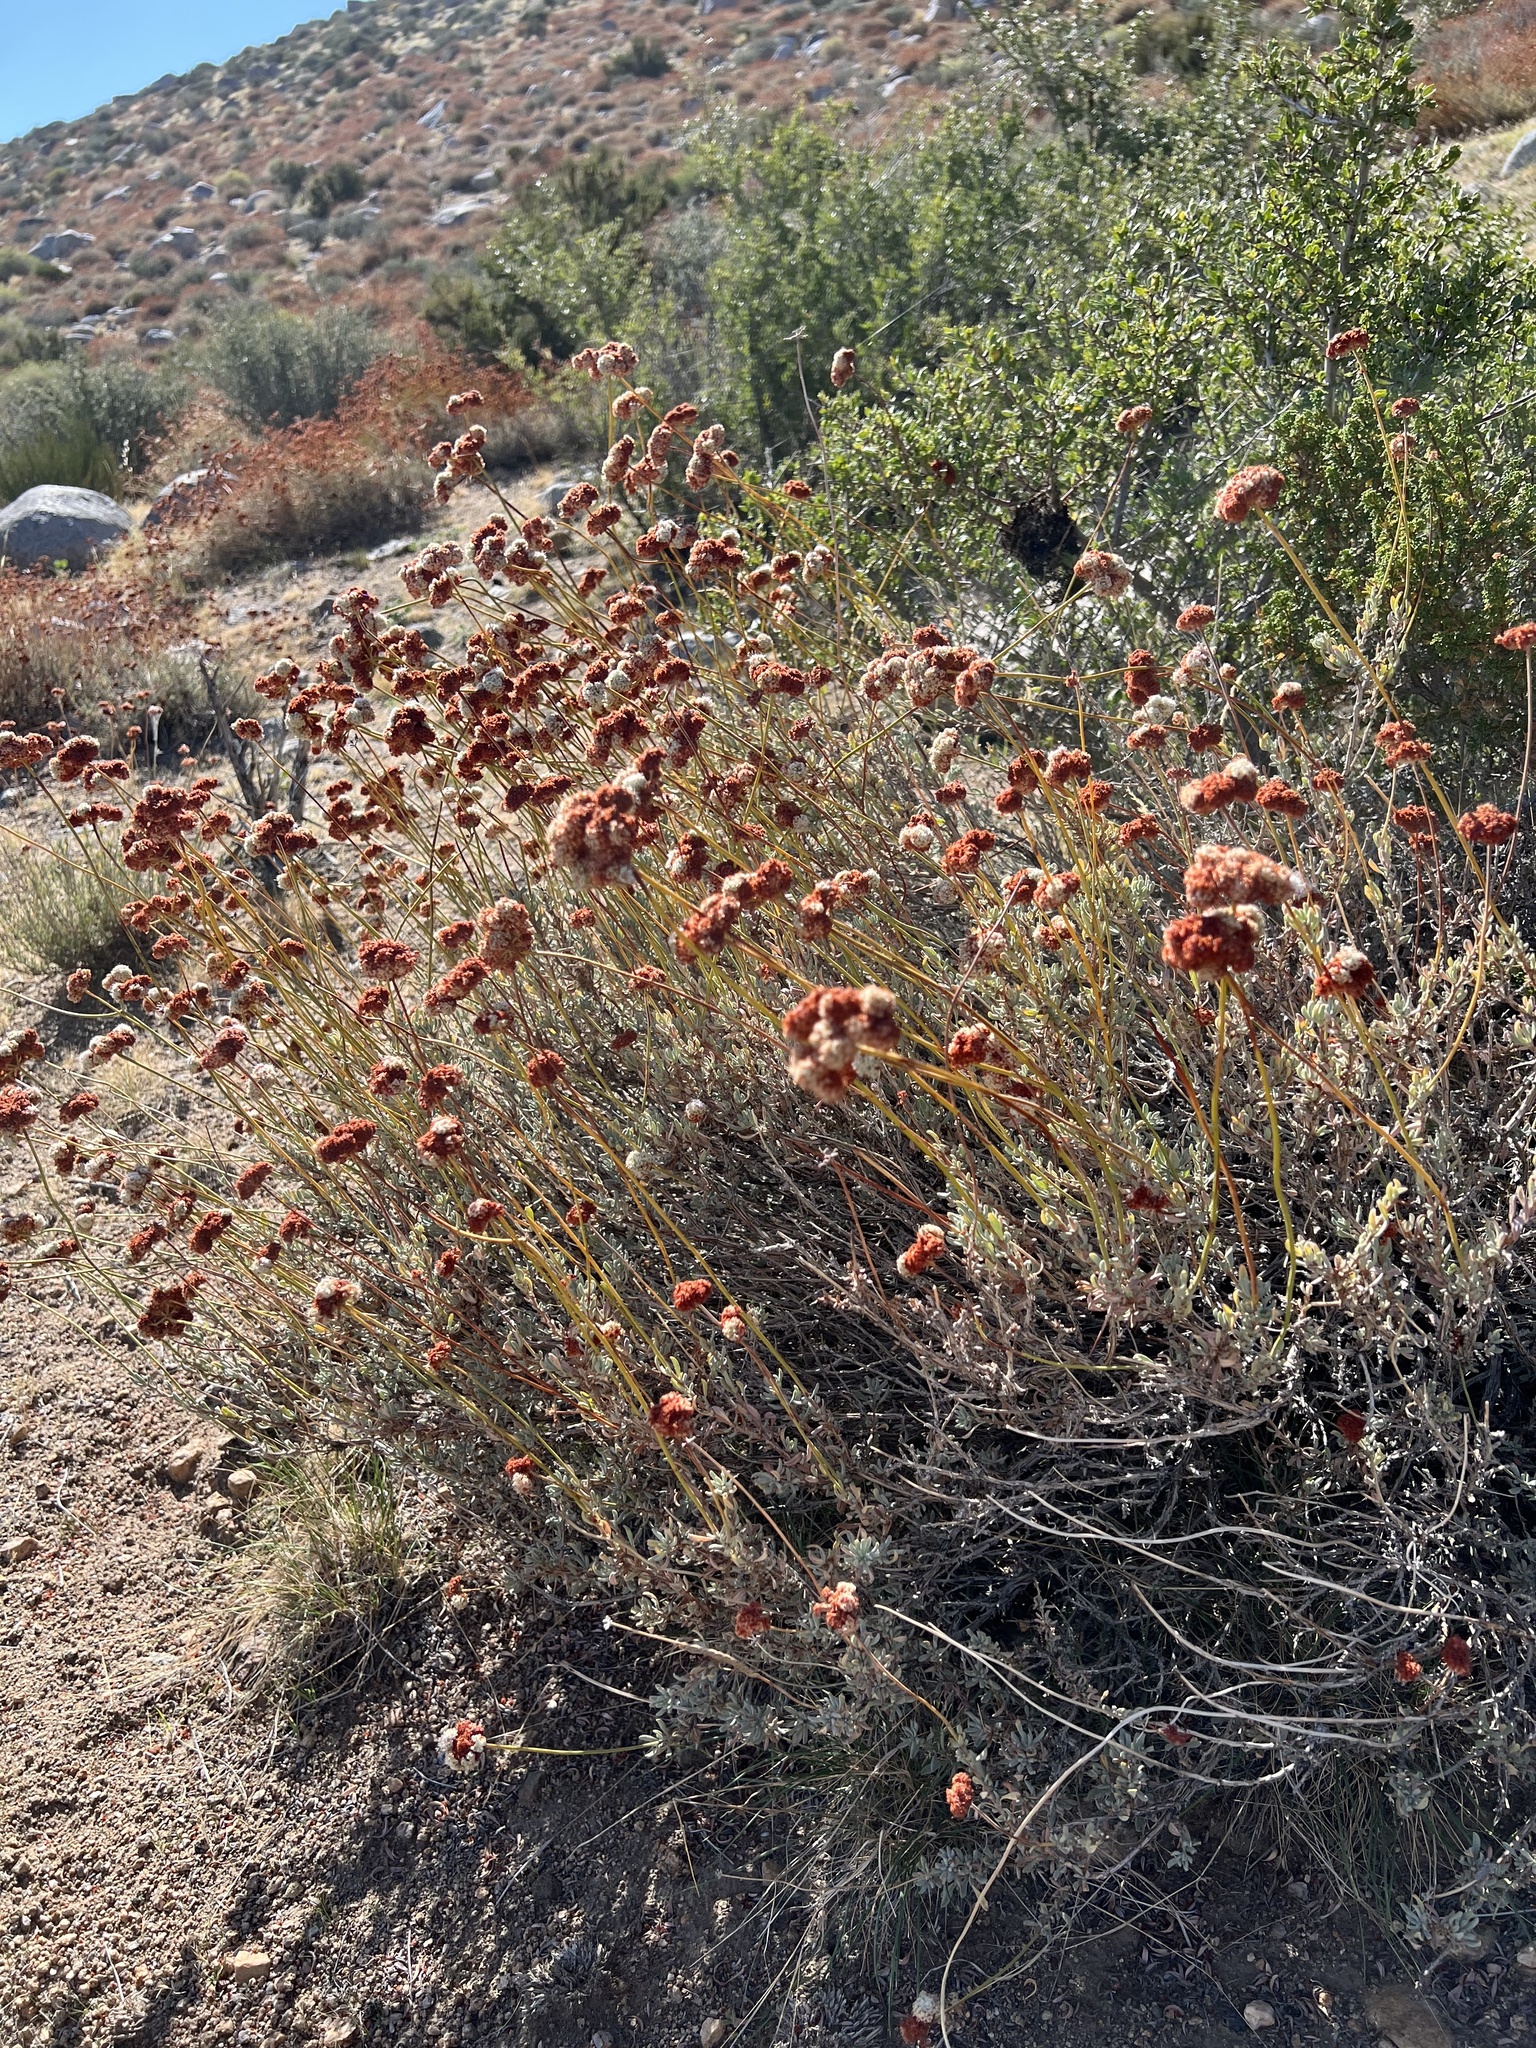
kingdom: Plantae
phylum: Tracheophyta
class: Magnoliopsida
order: Caryophyllales
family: Polygonaceae
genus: Eriogonum
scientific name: Eriogonum fasciculatum
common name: California wild buckwheat
